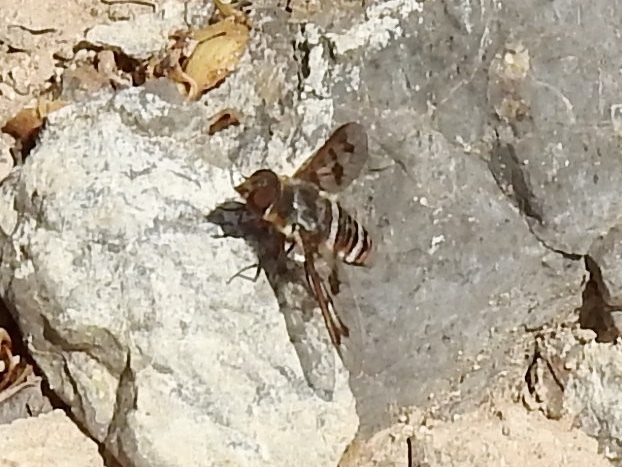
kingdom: Animalia
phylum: Arthropoda
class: Insecta
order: Diptera
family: Bombyliidae
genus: Exoprosopa
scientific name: Exoprosopa butleri
